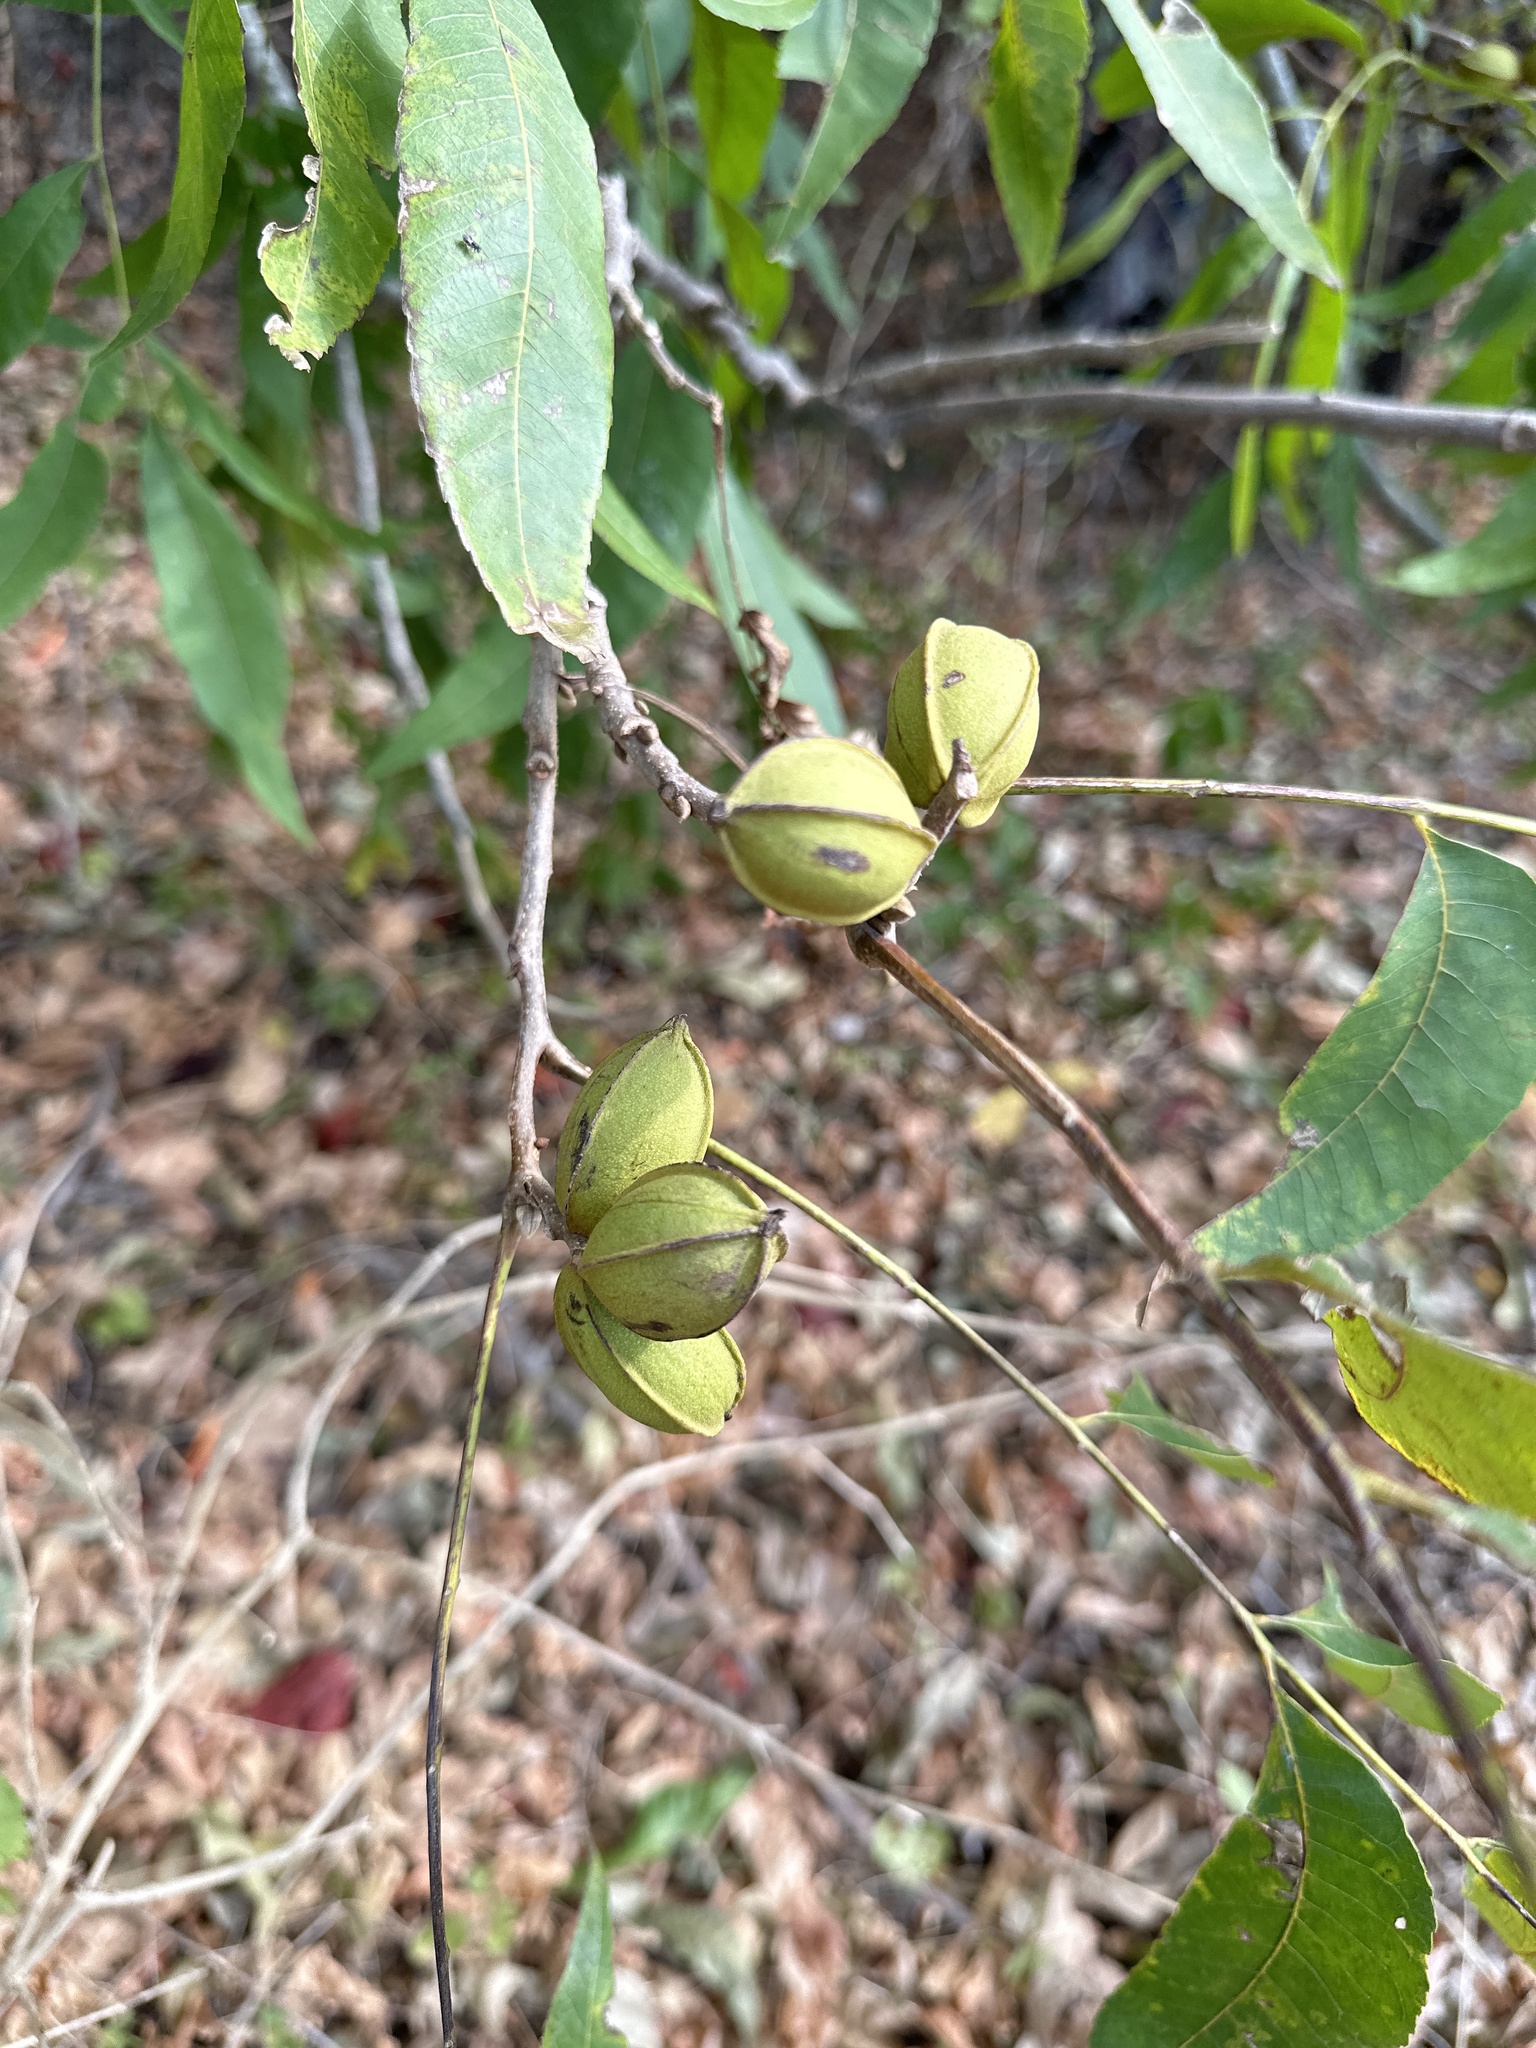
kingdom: Plantae
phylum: Tracheophyta
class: Magnoliopsida
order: Fagales
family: Juglandaceae
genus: Carya
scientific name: Carya illinoinensis
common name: Pecan
